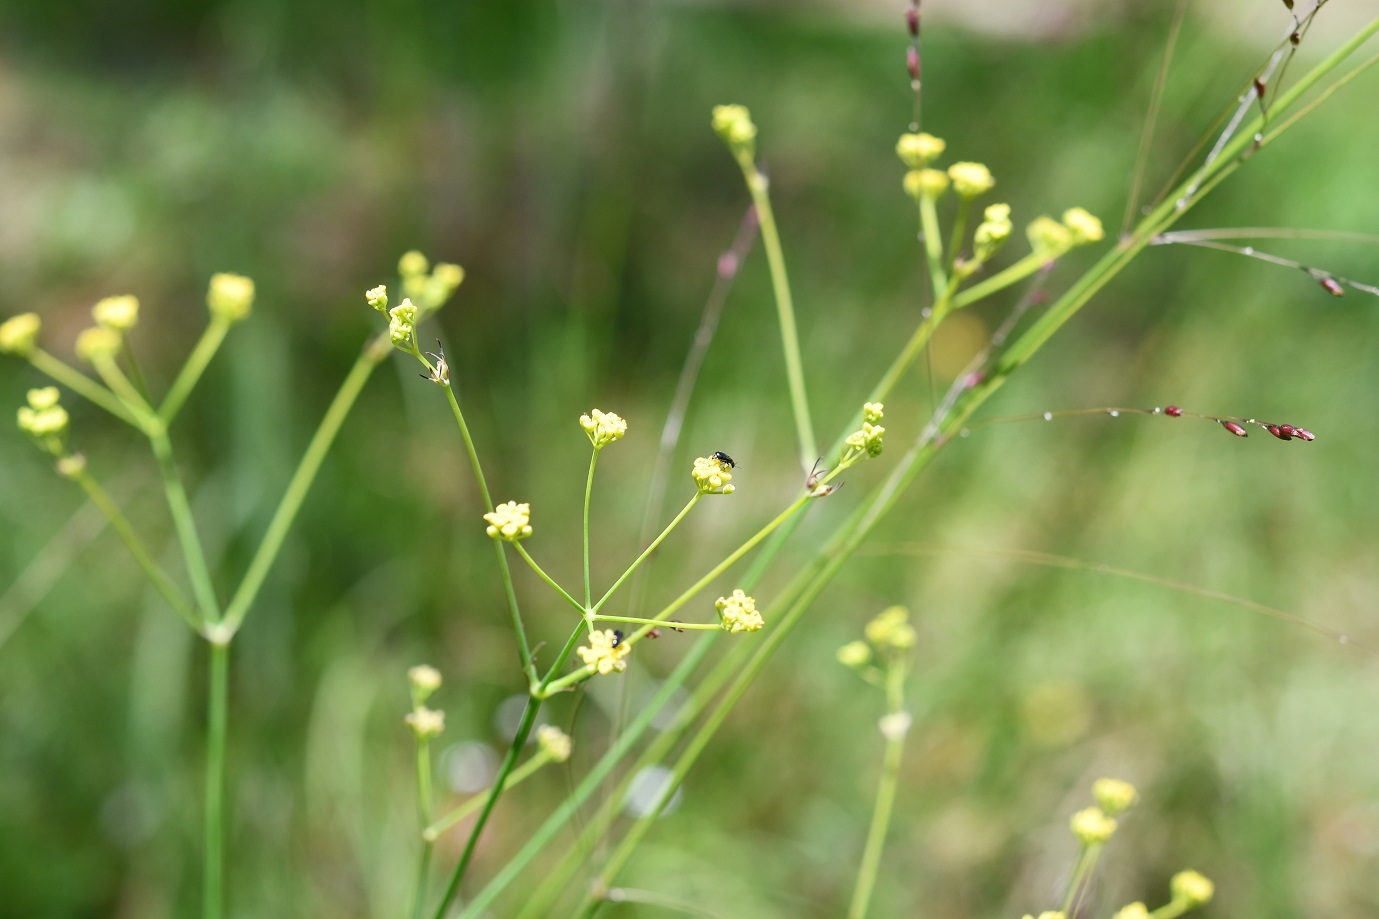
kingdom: Plantae
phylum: Tracheophyta
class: Magnoliopsida
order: Apiales
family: Apiaceae
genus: Donnellsmithia
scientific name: Donnellsmithia juncea
